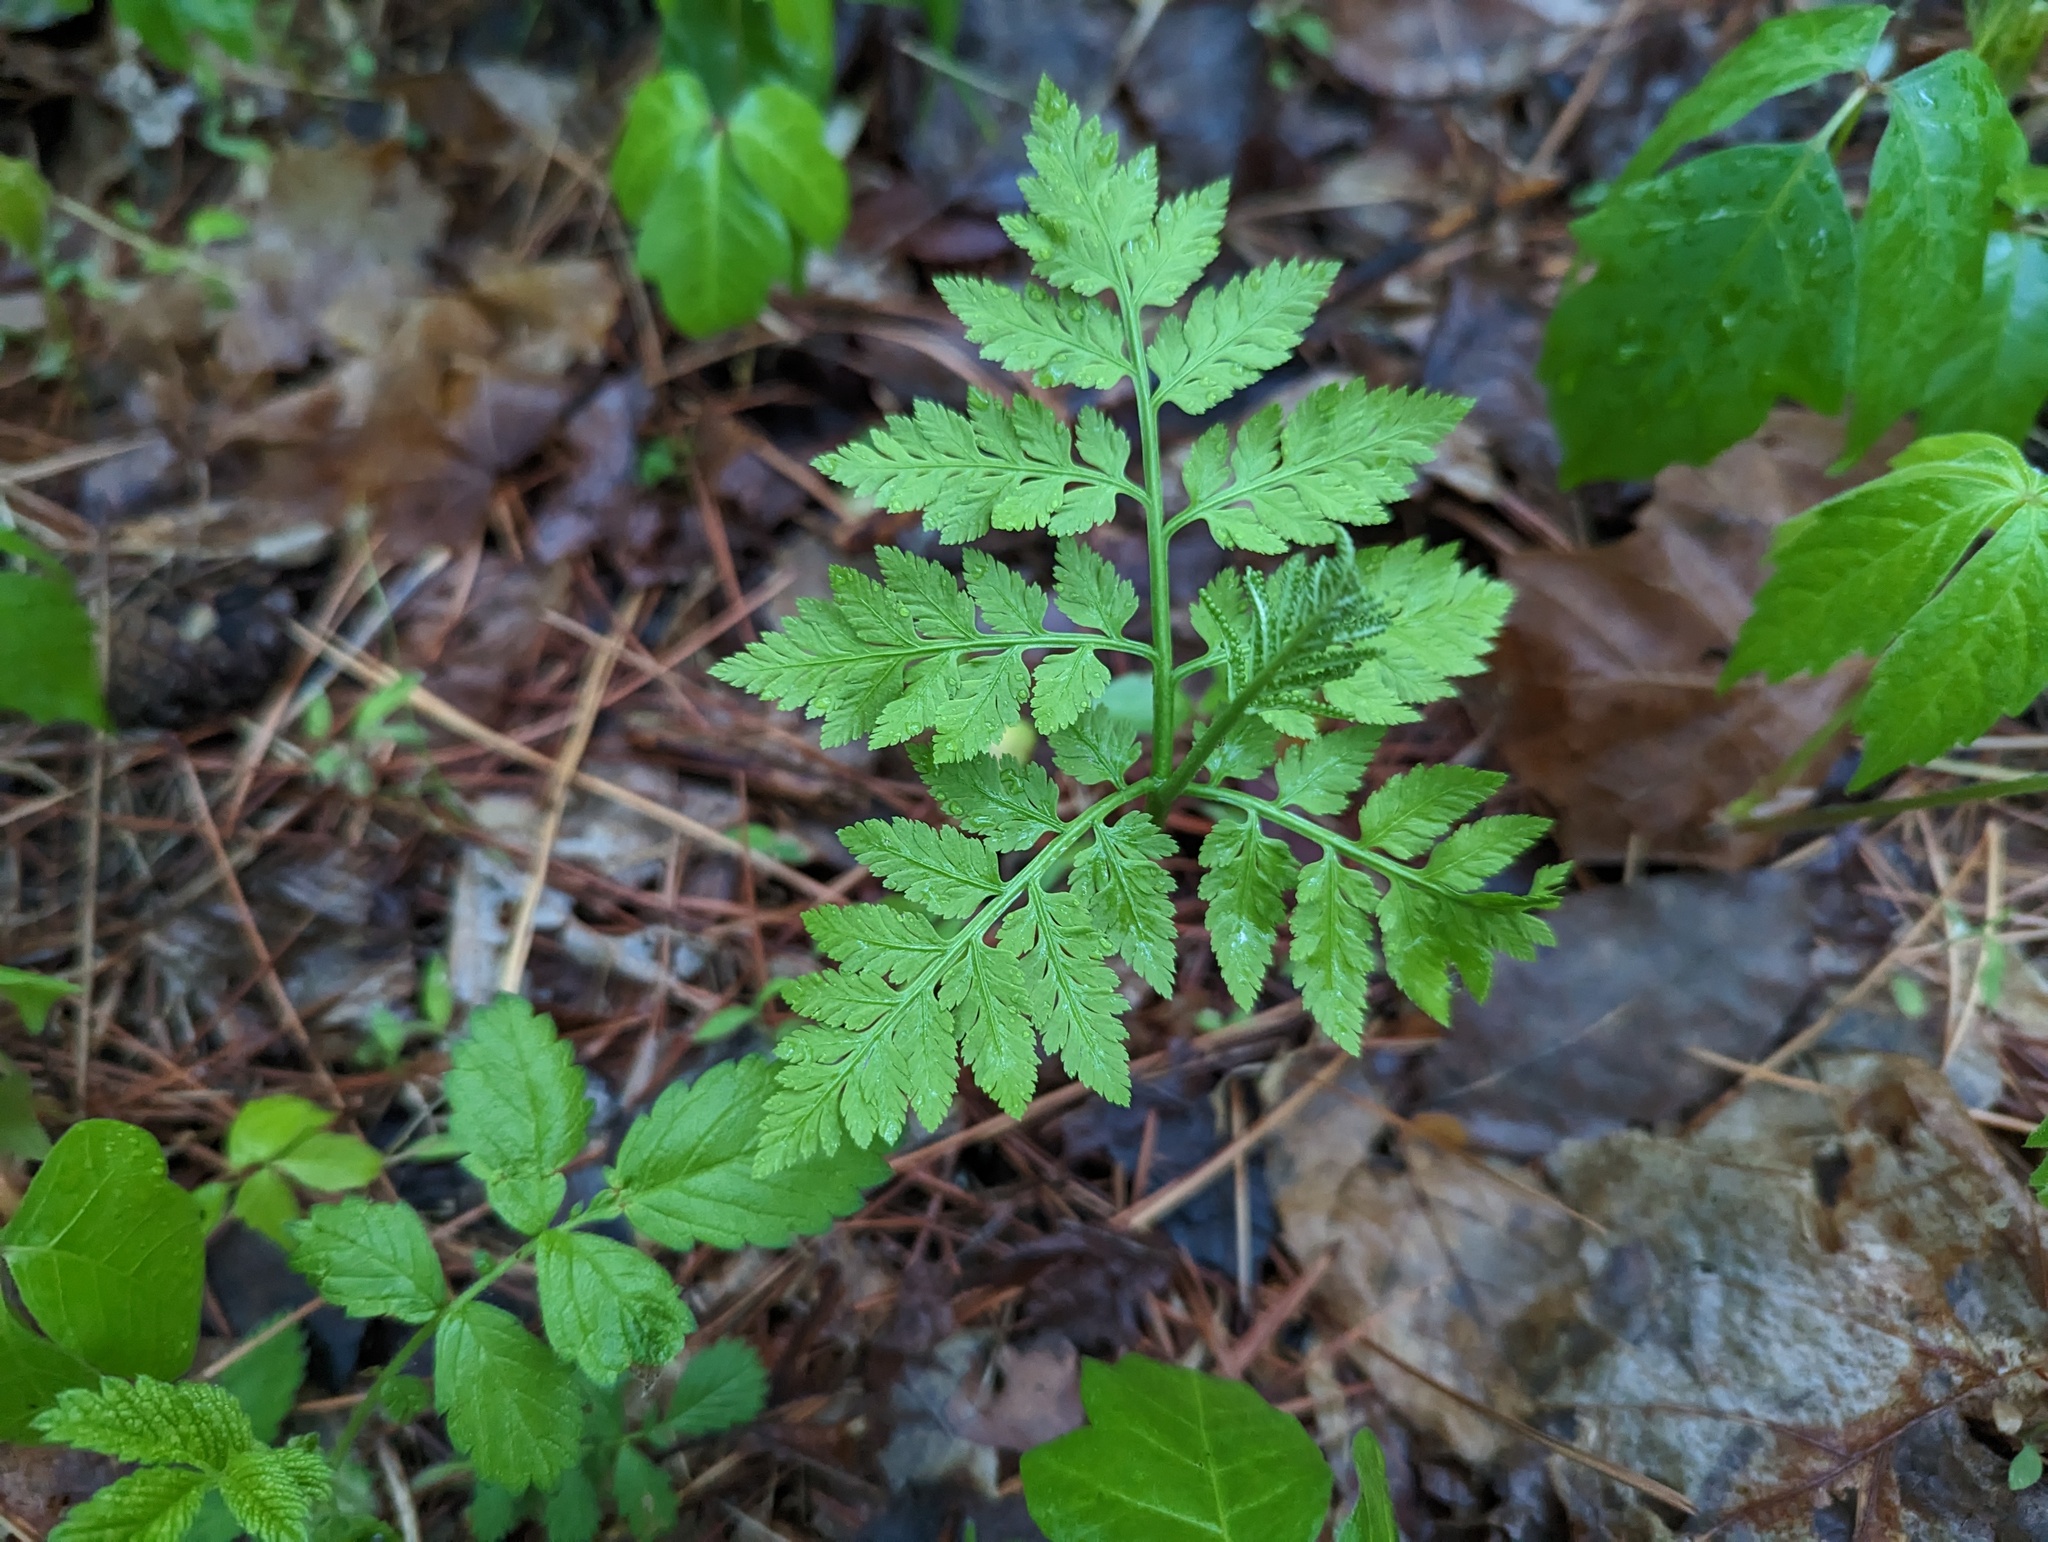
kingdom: Plantae
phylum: Tracheophyta
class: Polypodiopsida
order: Ophioglossales
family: Ophioglossaceae
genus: Botrypus
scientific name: Botrypus virginianus
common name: Common grapefern
